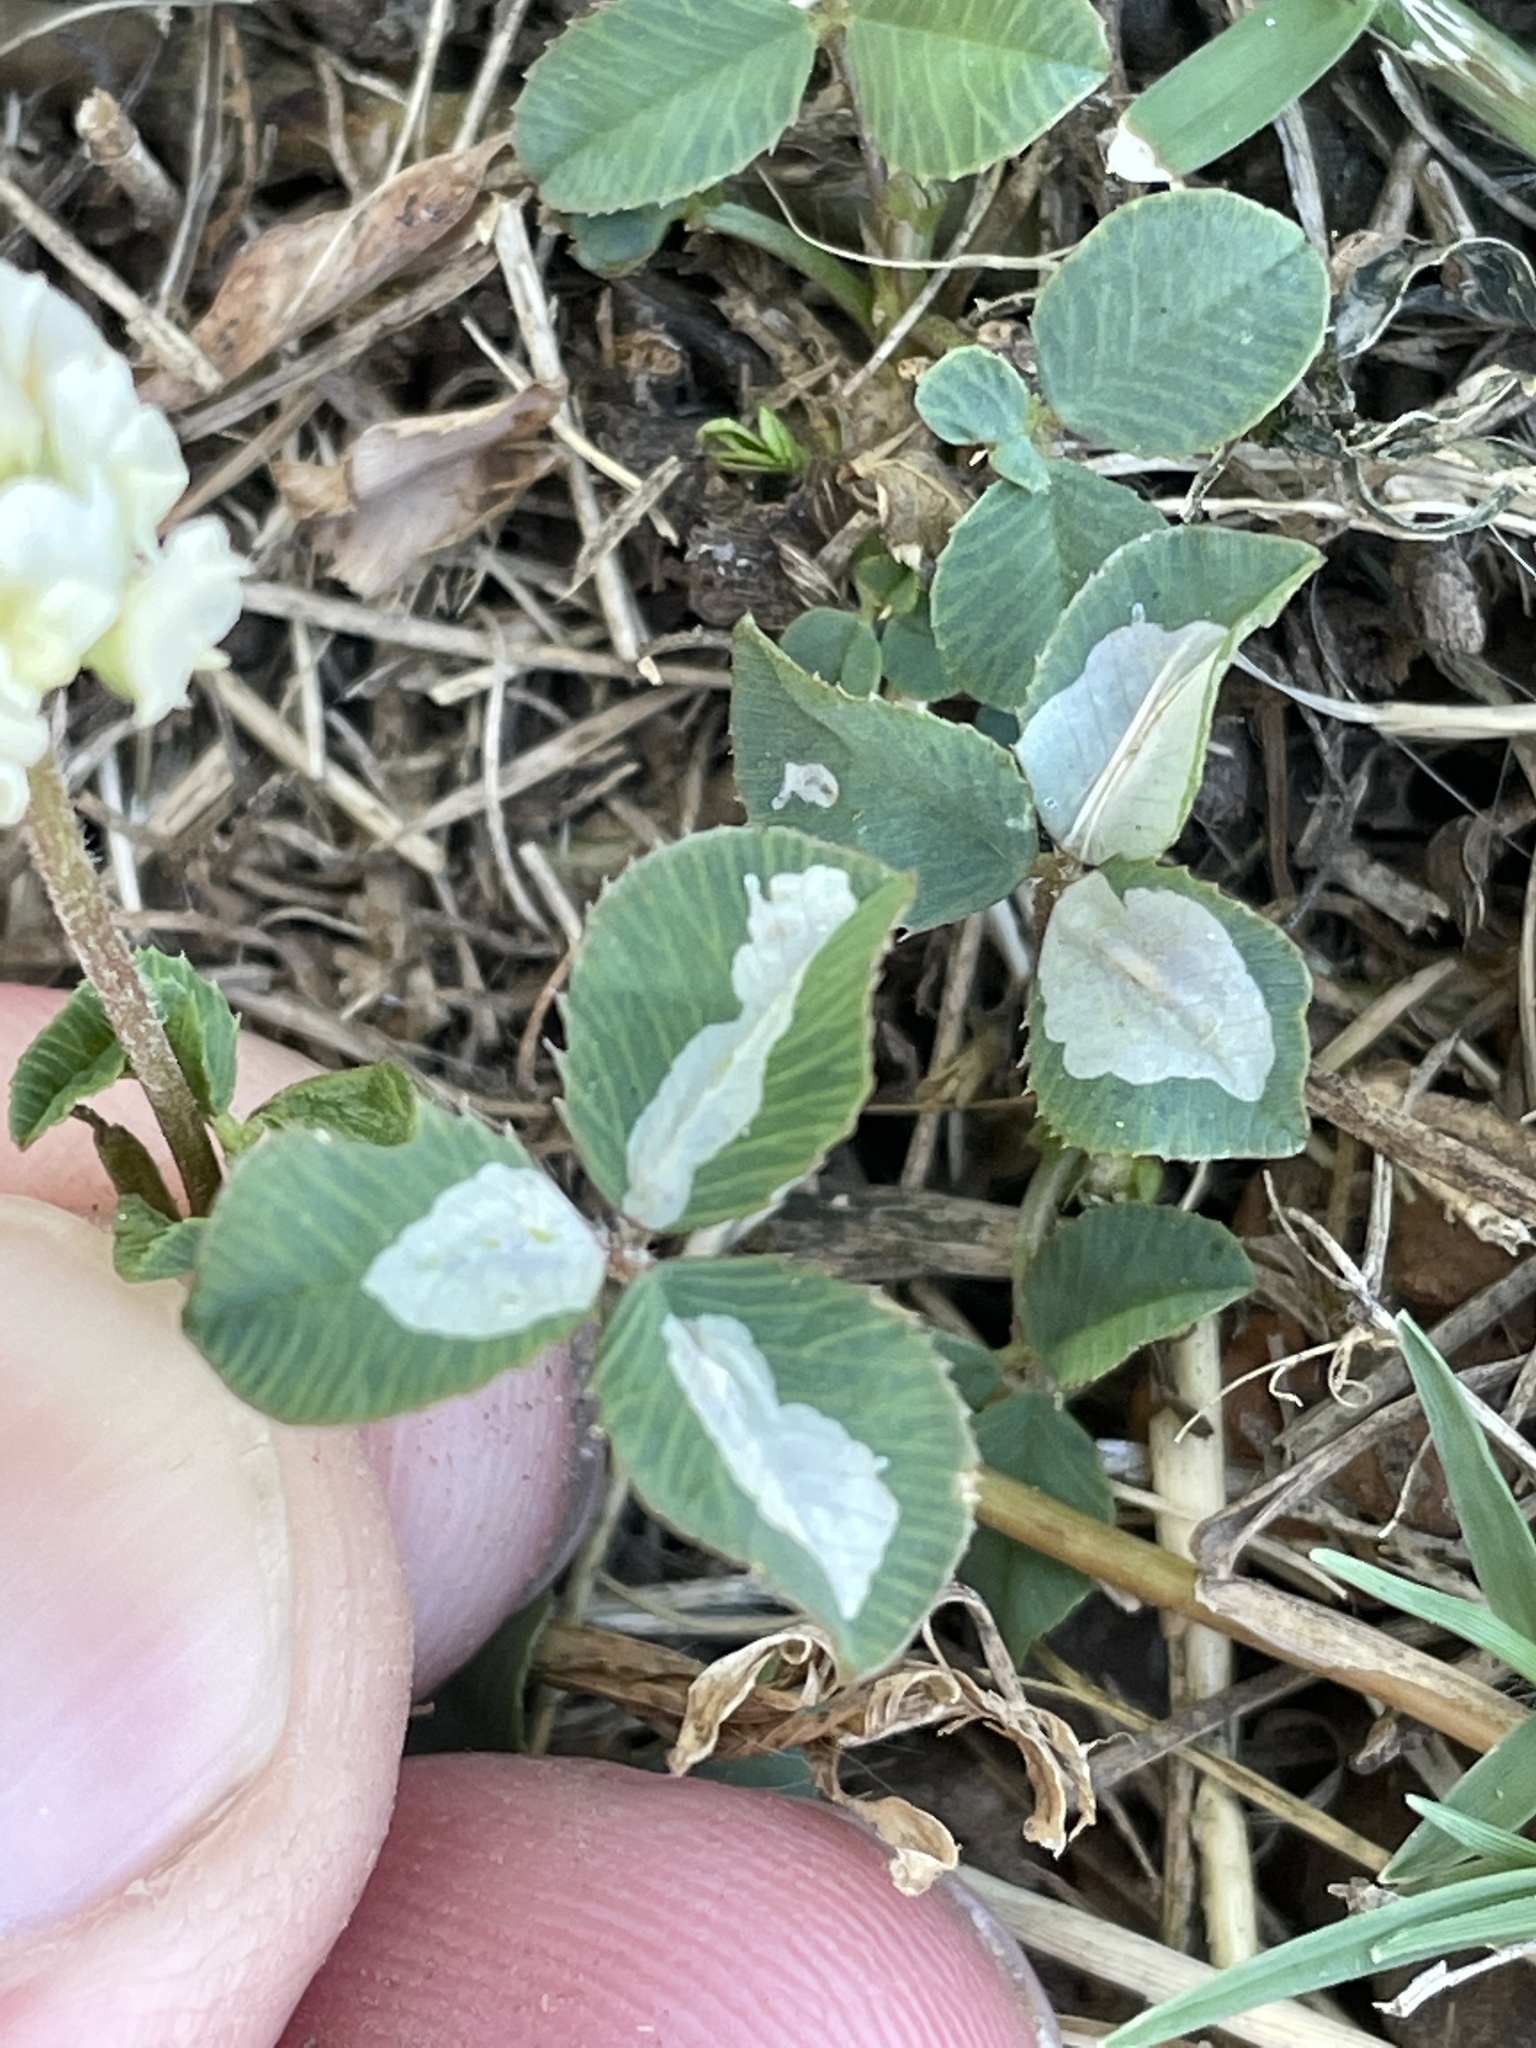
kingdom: Animalia
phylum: Arthropoda
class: Insecta
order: Lepidoptera
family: Gracillariidae
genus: Porphyrosela
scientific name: Porphyrosela minuta
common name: Leaf miner moth
